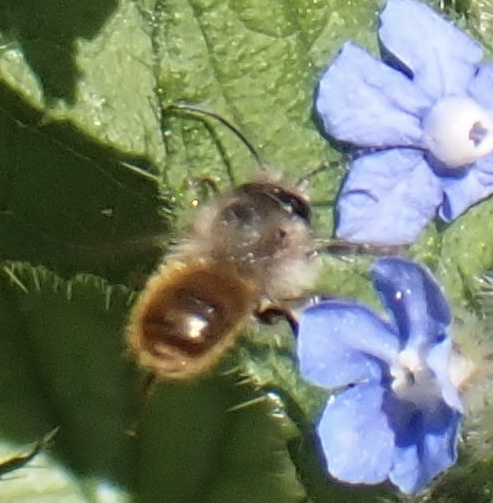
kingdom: Animalia
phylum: Arthropoda
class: Insecta
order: Hymenoptera
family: Megachilidae
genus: Osmia
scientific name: Osmia bicornis
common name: Red mason bee
